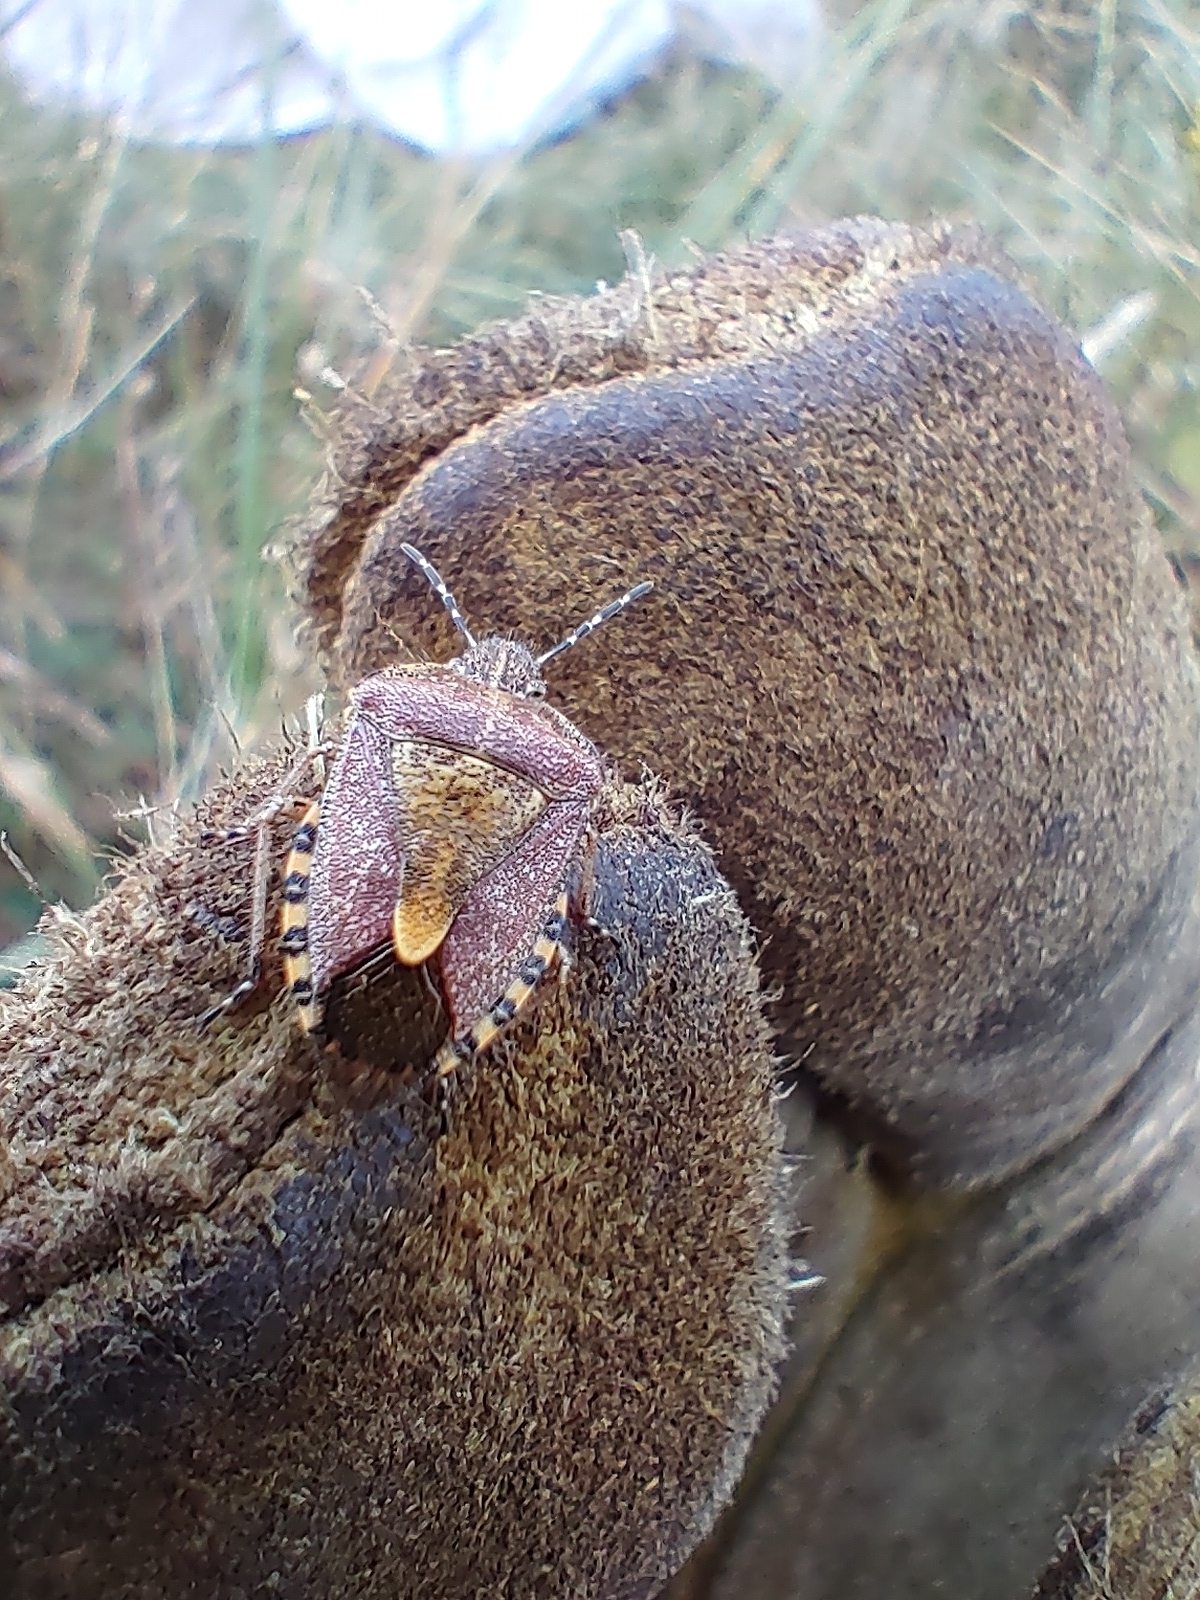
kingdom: Animalia
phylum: Arthropoda
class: Insecta
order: Hemiptera
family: Pentatomidae
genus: Dolycoris
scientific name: Dolycoris baccarum
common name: Sloe bug
